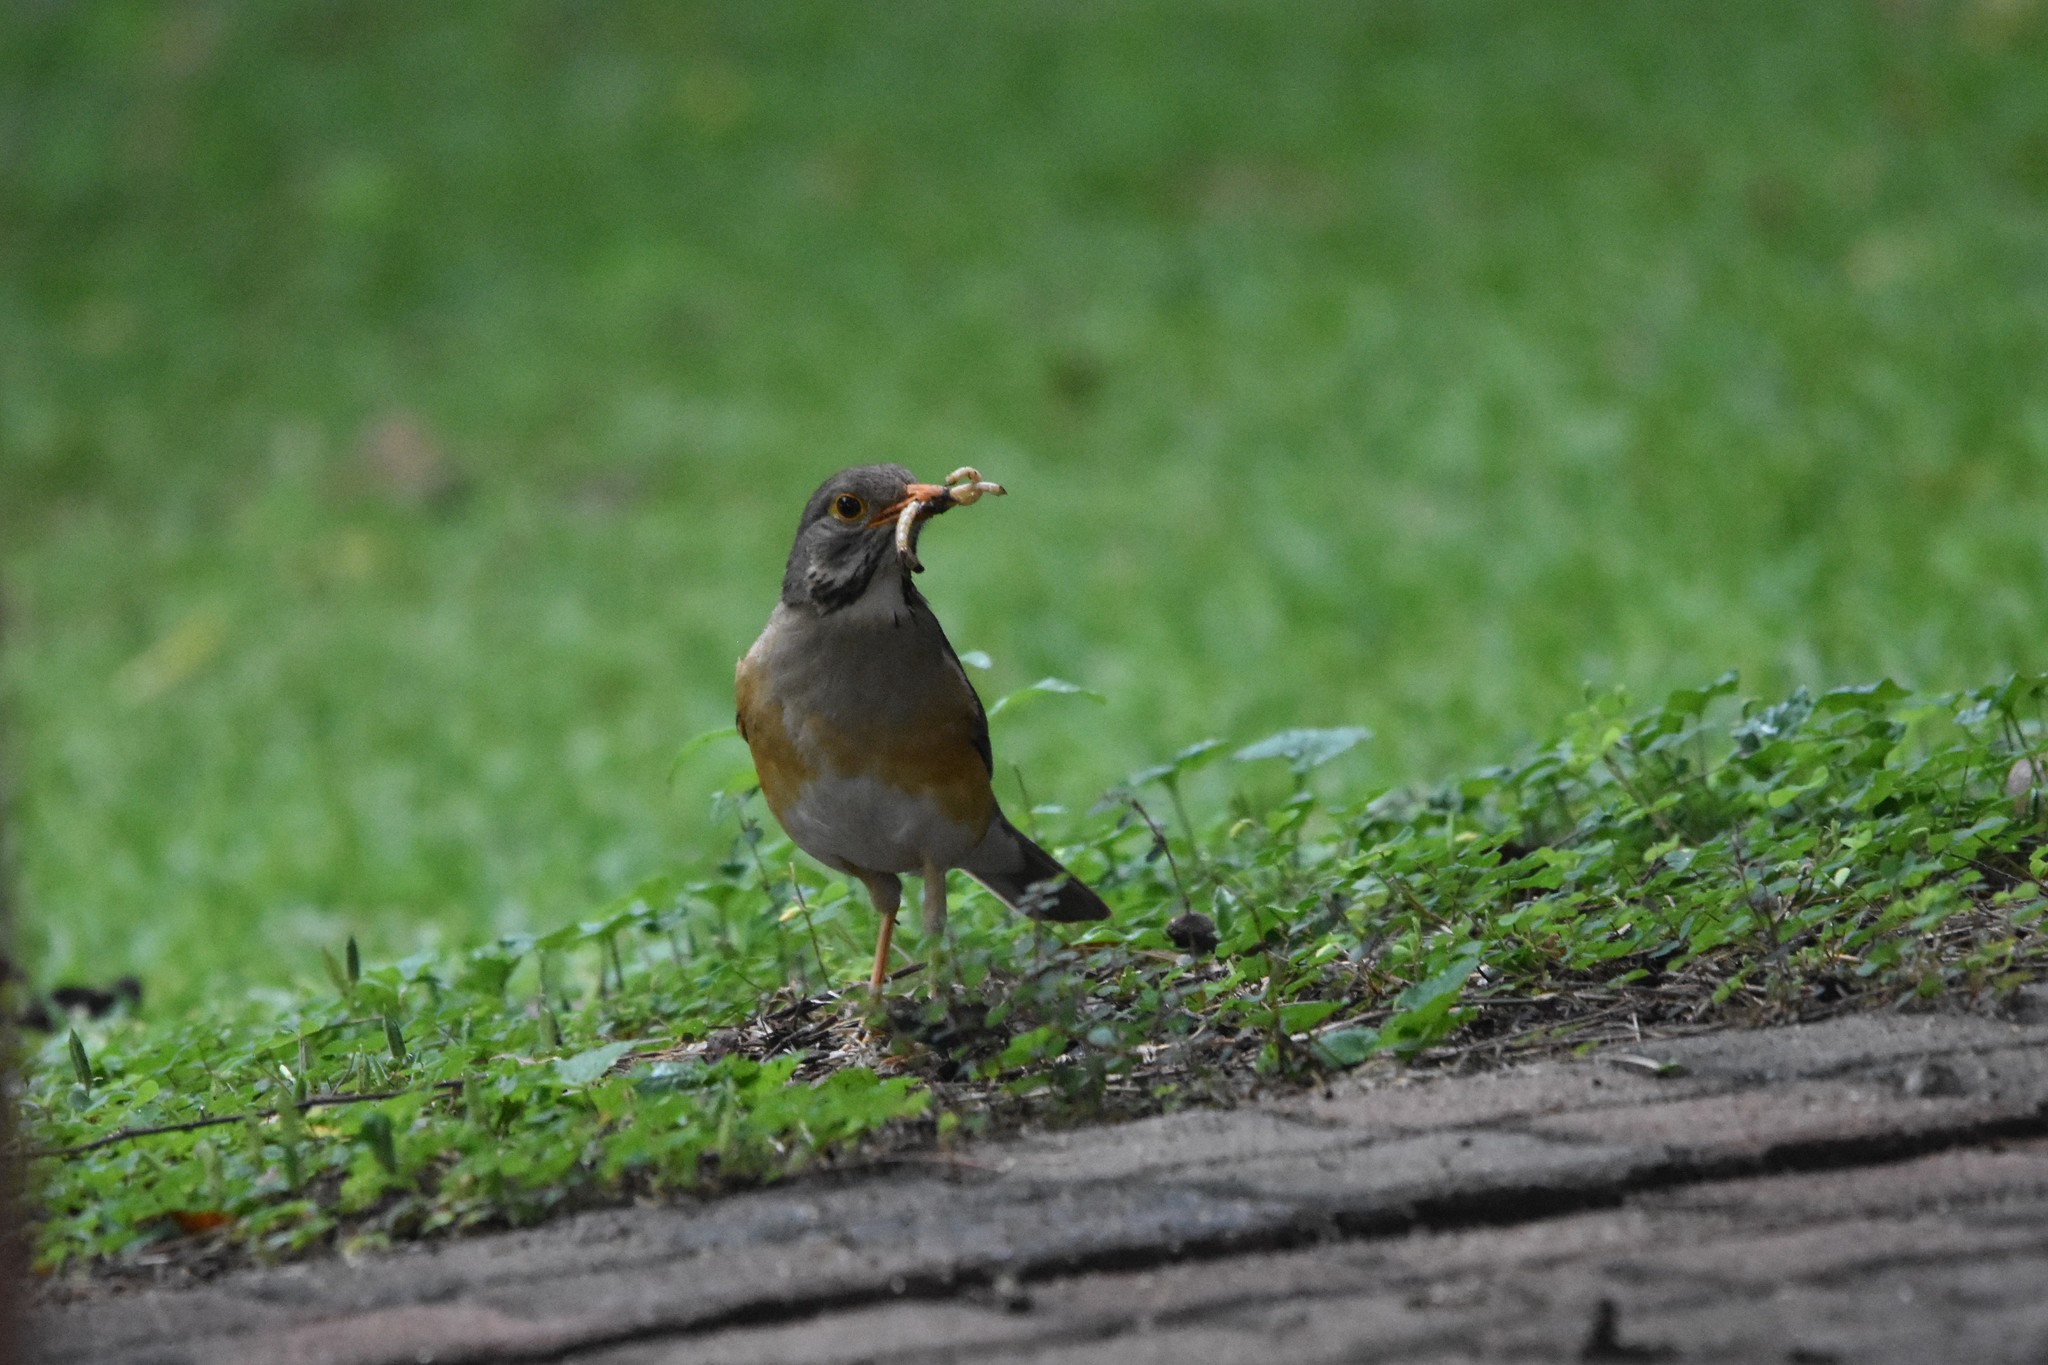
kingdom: Animalia
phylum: Chordata
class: Aves
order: Passeriformes
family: Turdidae
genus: Turdus
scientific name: Turdus libonyana
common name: Kurrichane thrush
